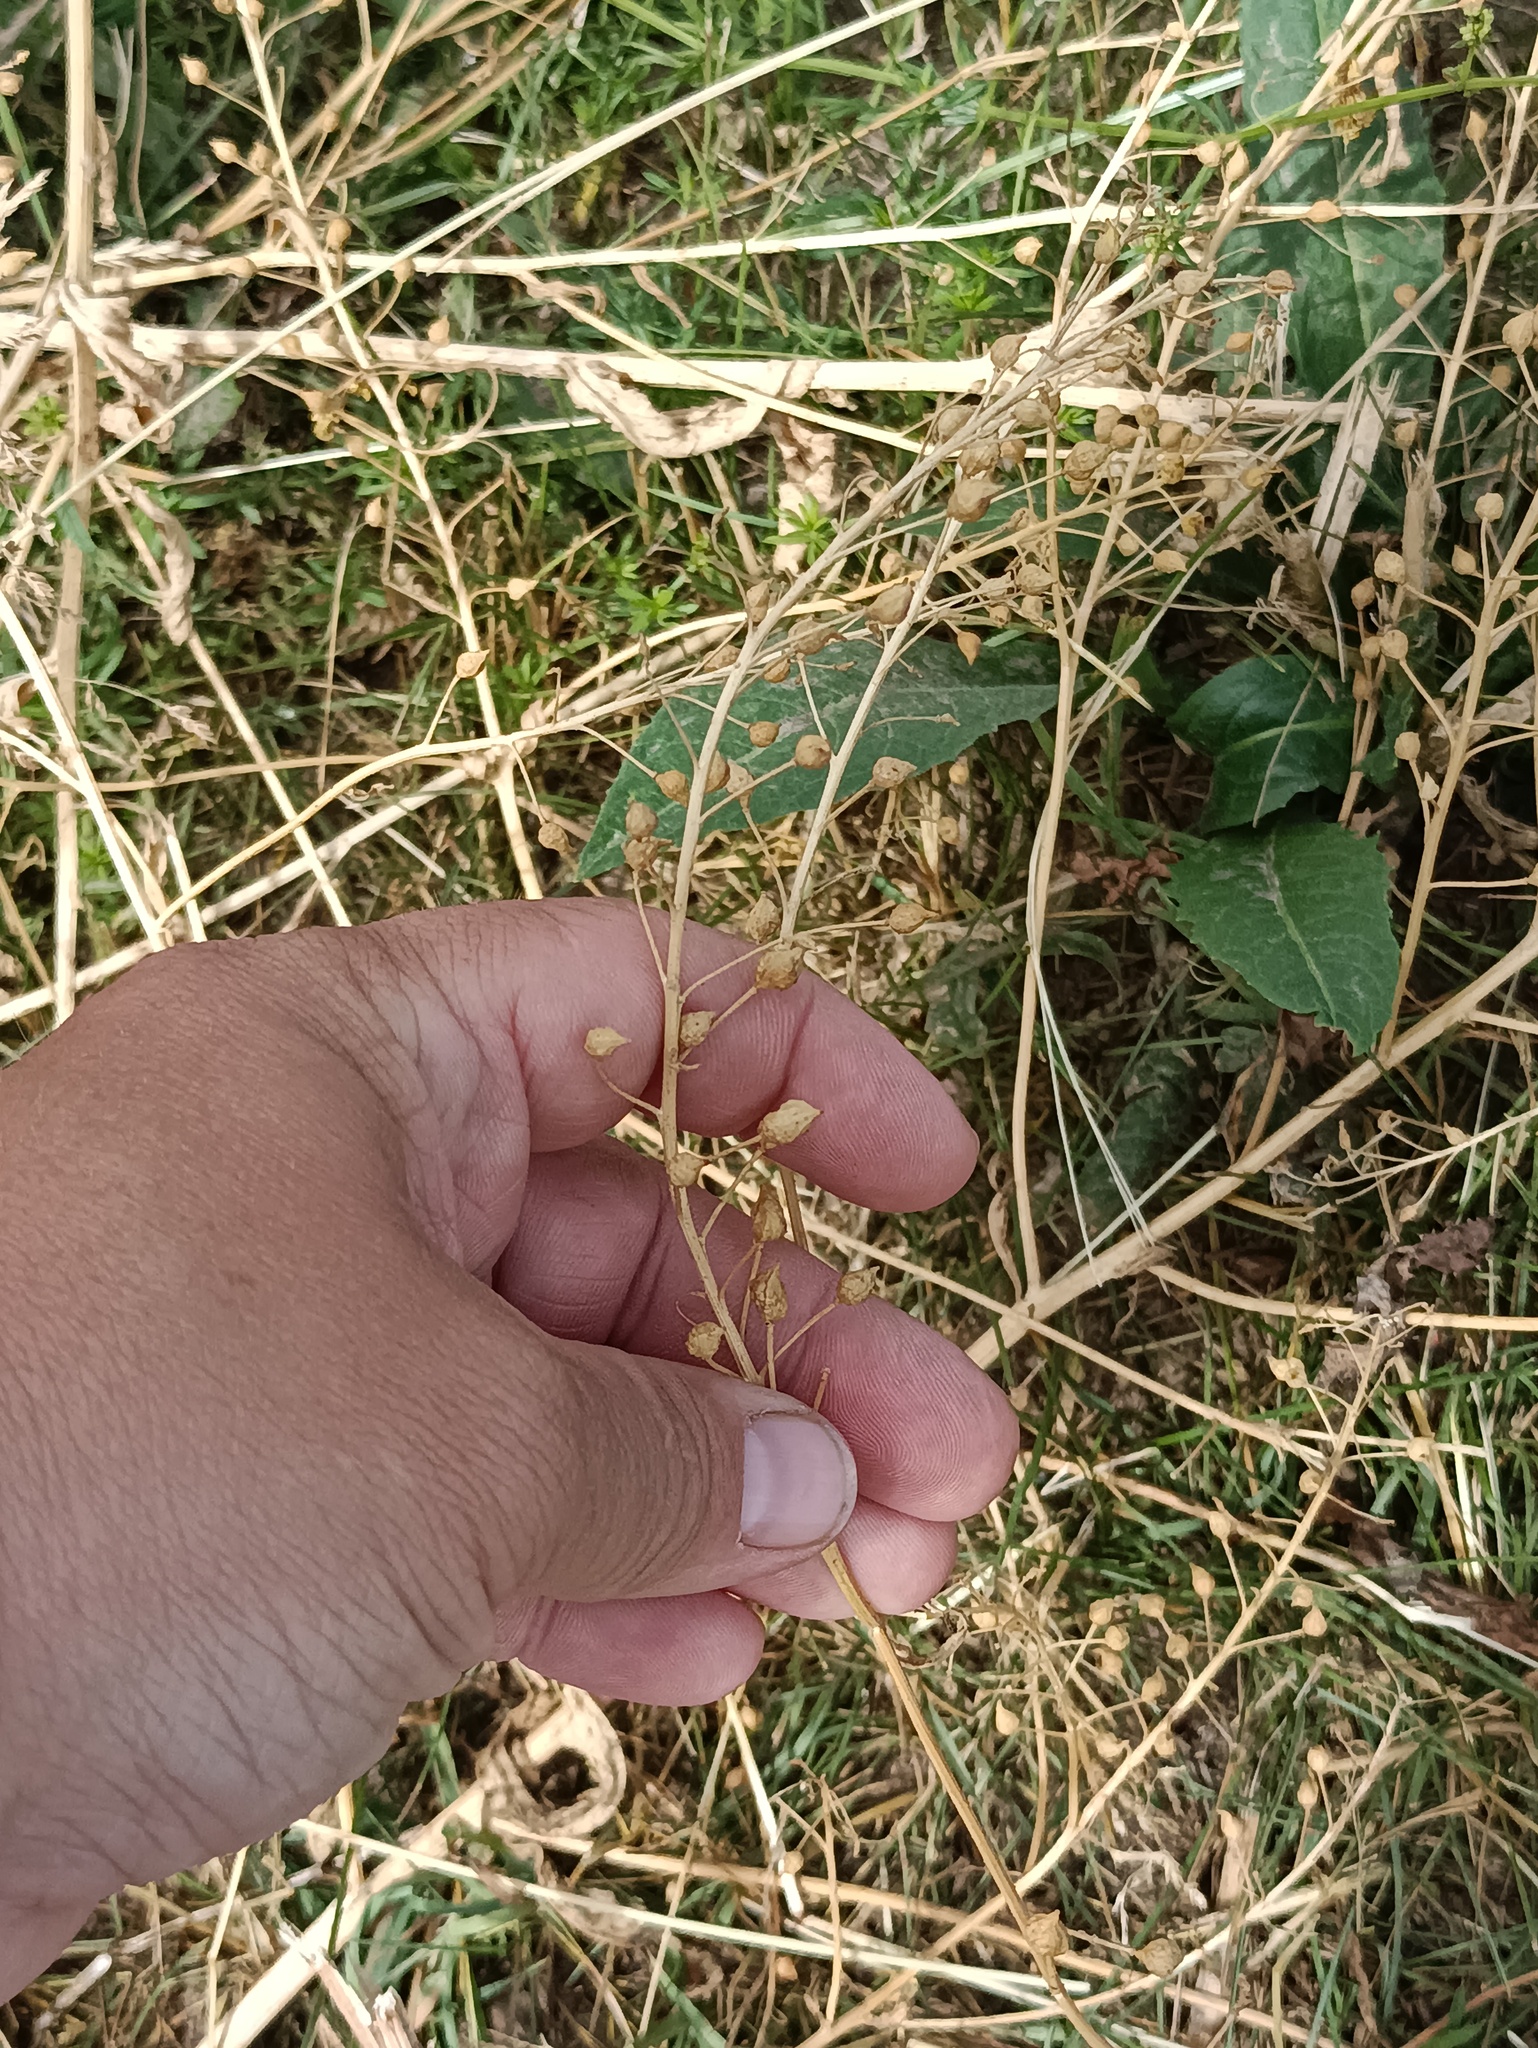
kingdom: Plantae
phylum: Tracheophyta
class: Magnoliopsida
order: Brassicales
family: Brassicaceae
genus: Bunias
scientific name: Bunias orientalis
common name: Warty-cabbage
